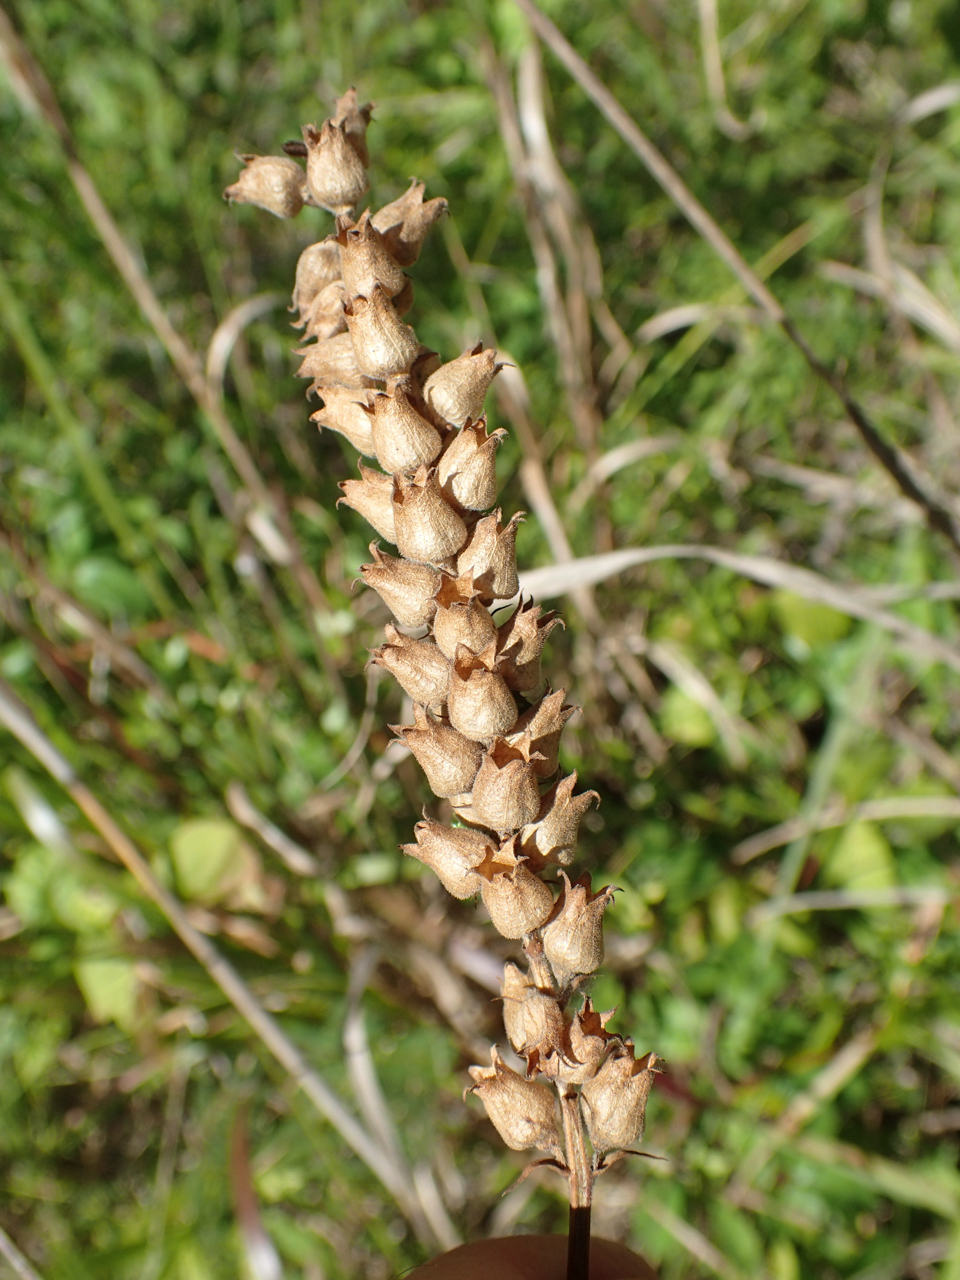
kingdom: Plantae
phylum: Tracheophyta
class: Magnoliopsida
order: Lamiales
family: Lamiaceae
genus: Physostegia
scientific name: Physostegia angustifolia
